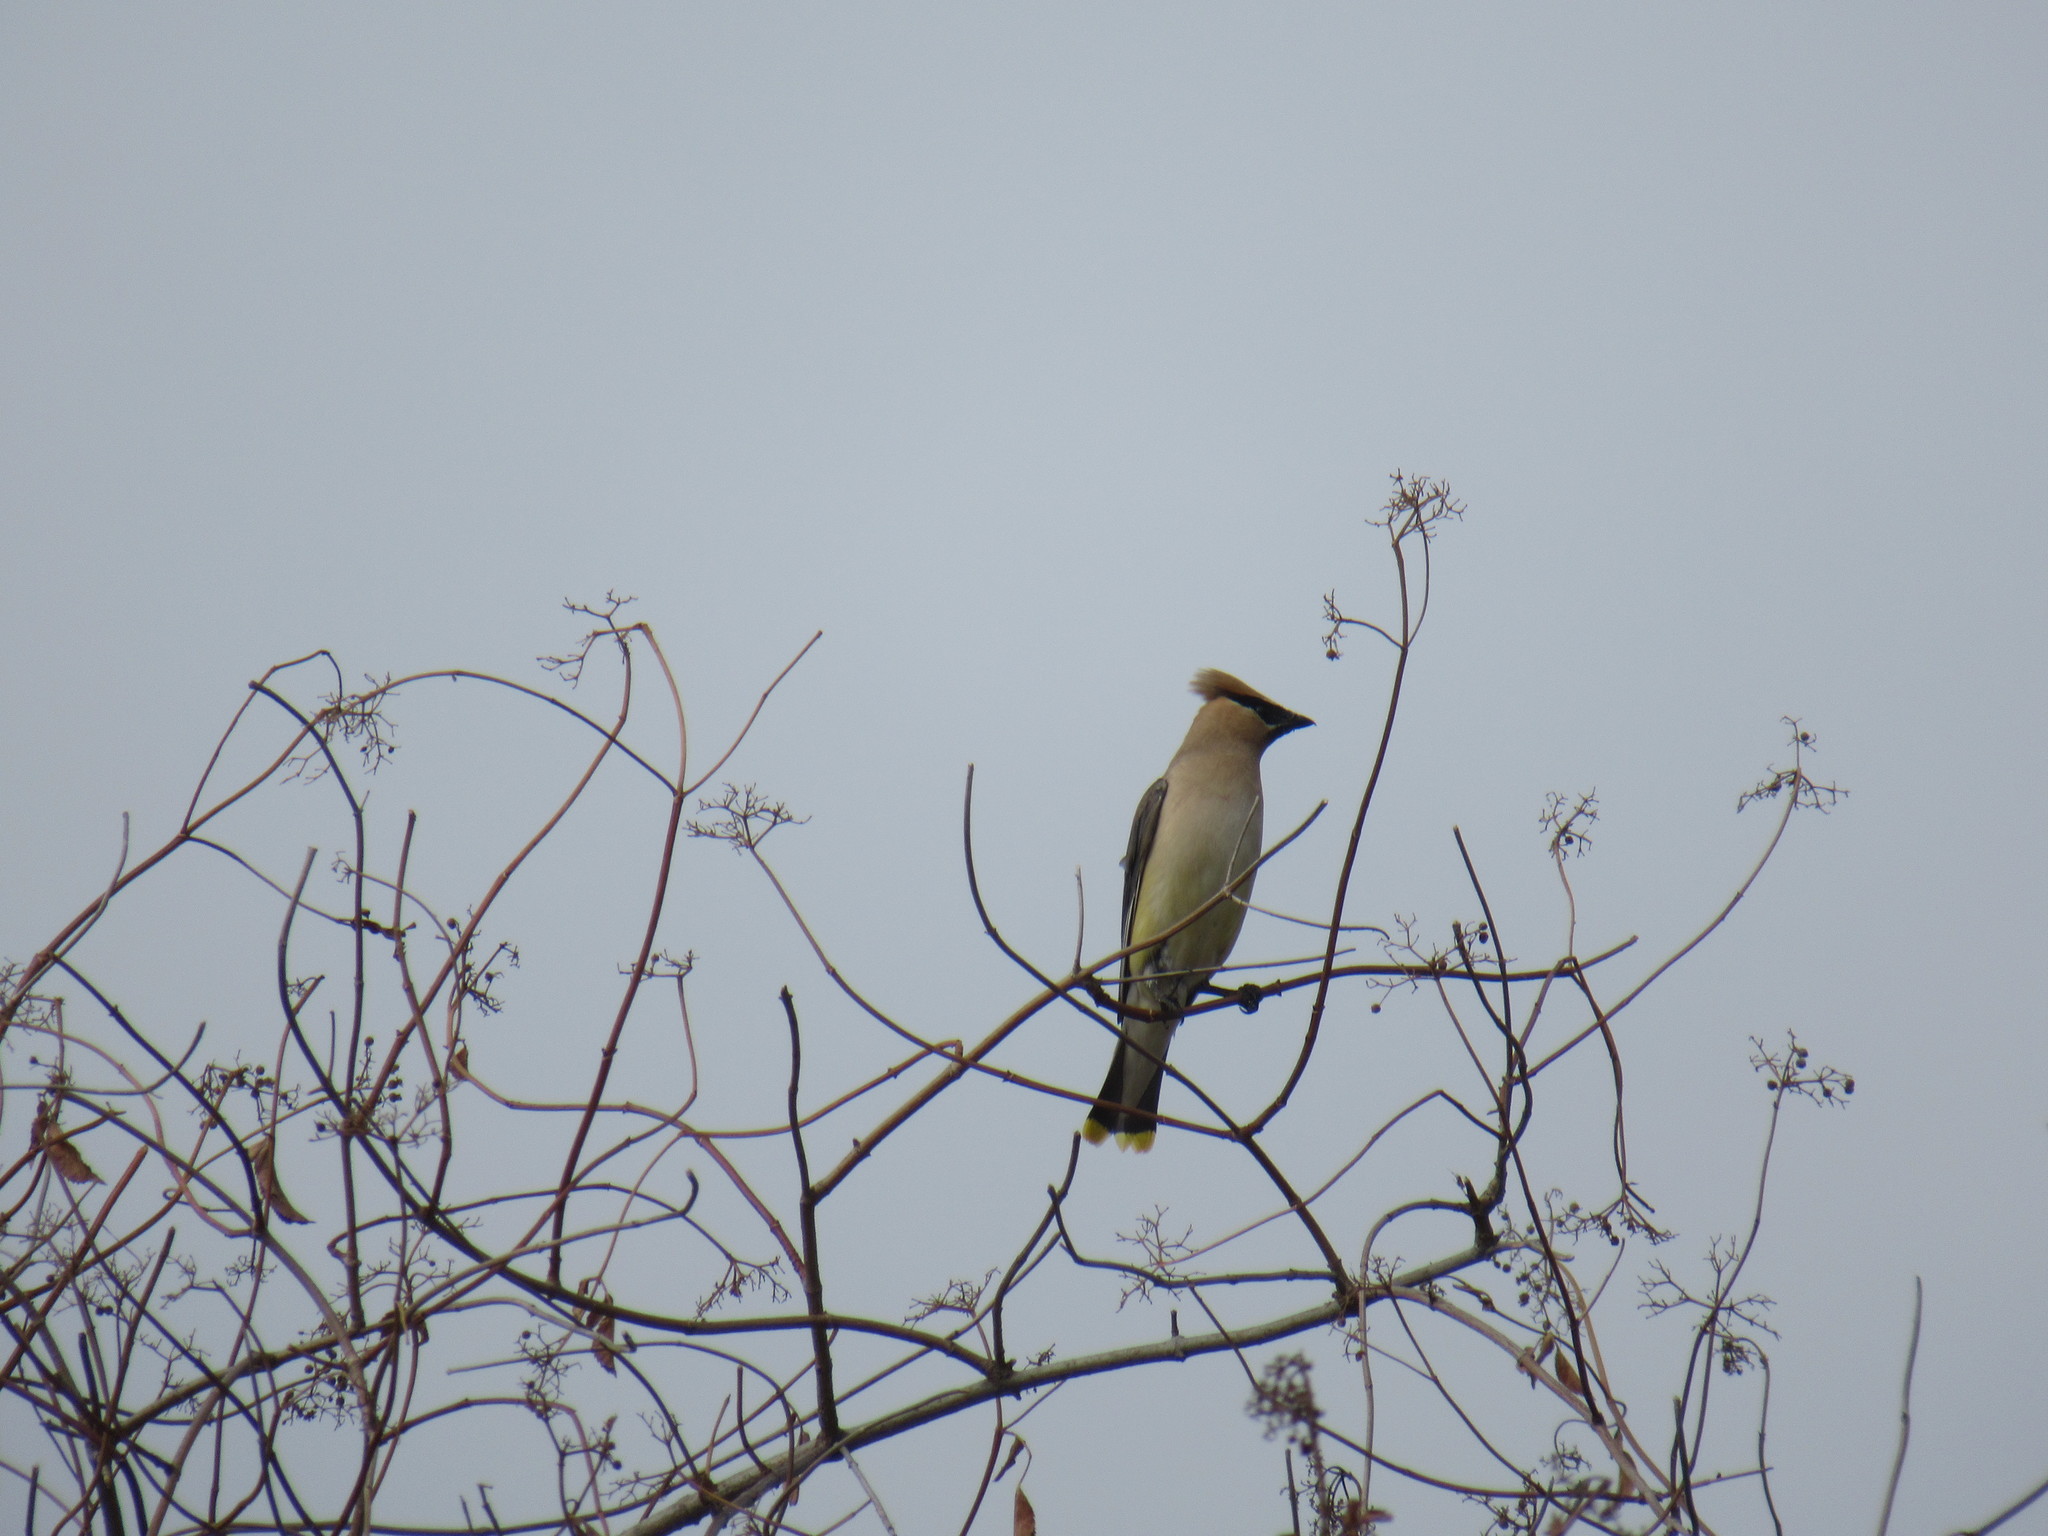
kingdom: Animalia
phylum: Chordata
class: Aves
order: Passeriformes
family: Bombycillidae
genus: Bombycilla
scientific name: Bombycilla cedrorum
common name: Cedar waxwing
